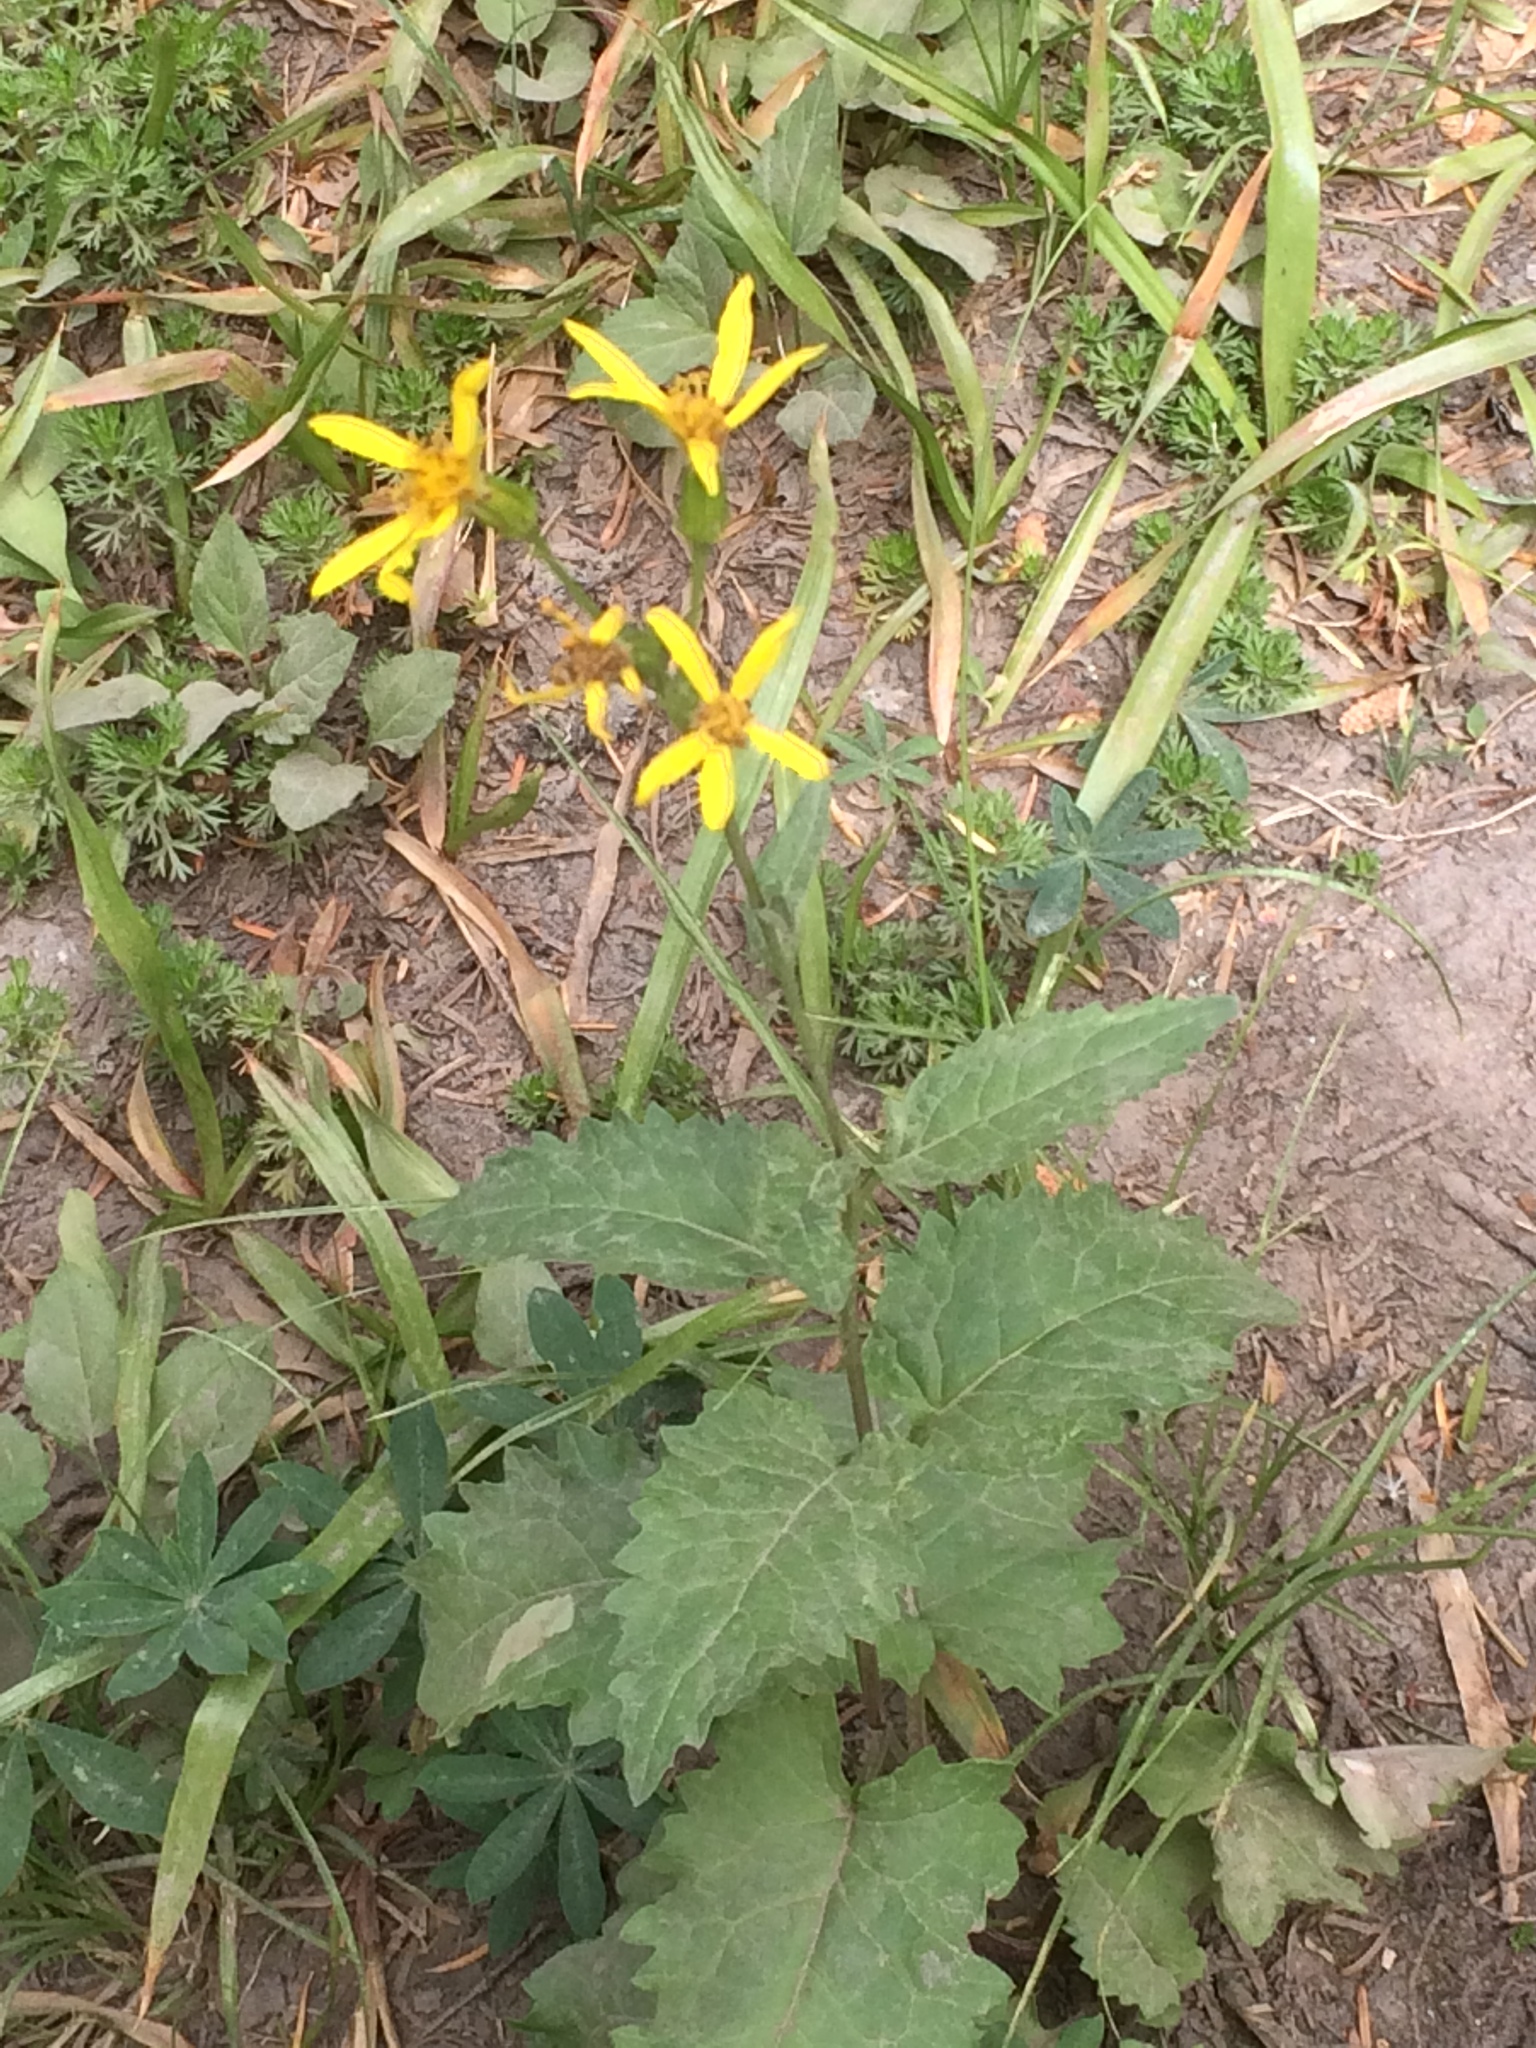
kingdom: Plantae
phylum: Tracheophyta
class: Magnoliopsida
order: Asterales
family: Asteraceae
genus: Arnica
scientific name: Arnica latifolia
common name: Arnica
